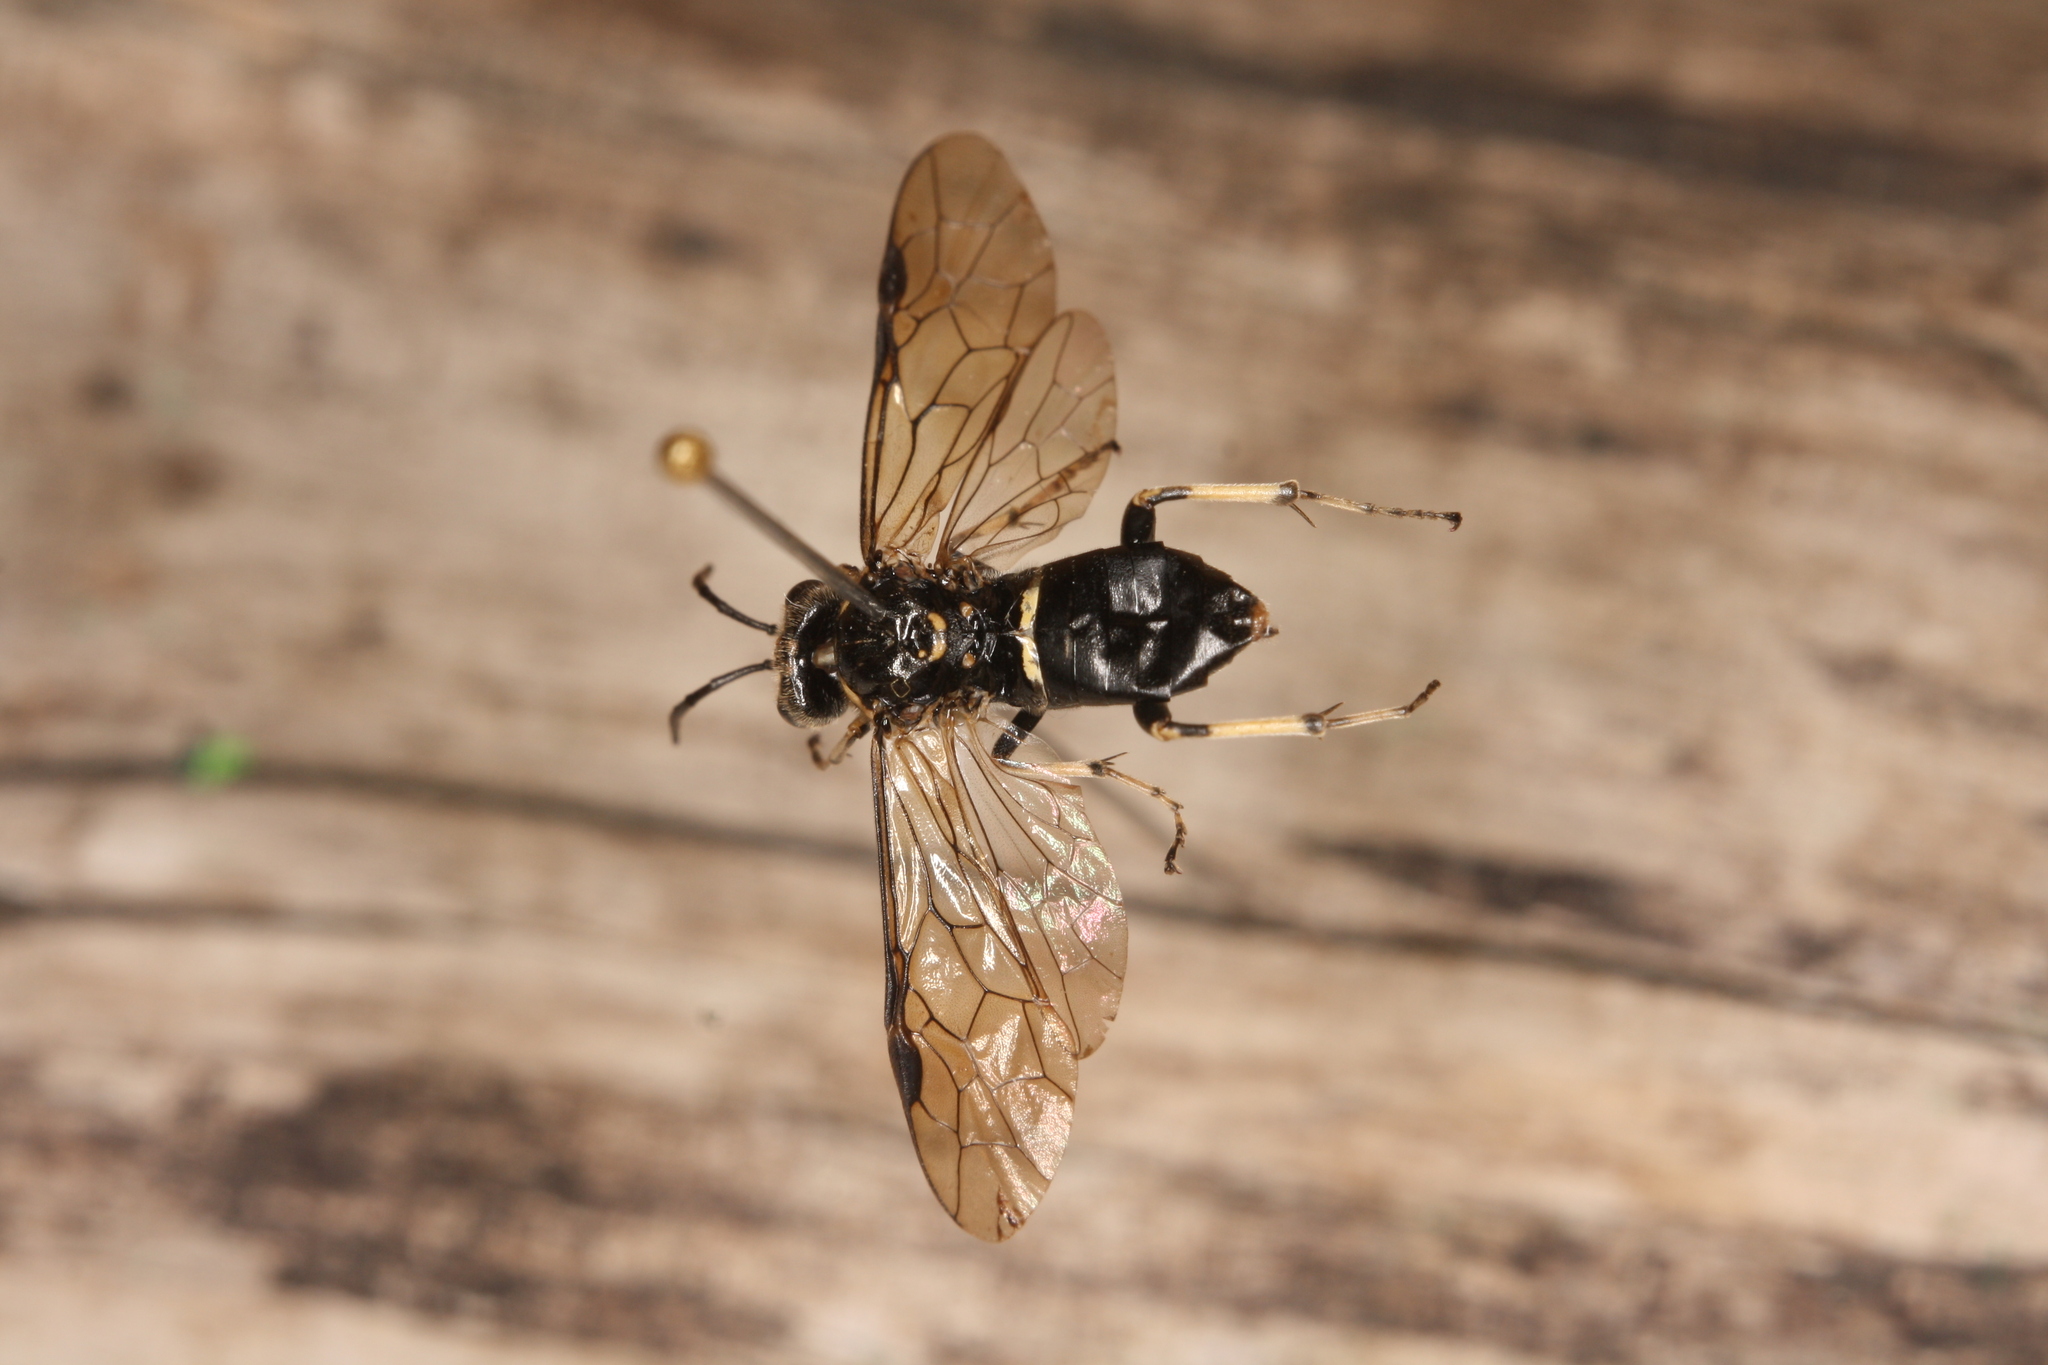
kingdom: Animalia
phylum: Arthropoda
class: Insecta
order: Hymenoptera
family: Tenthredinidae
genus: Macrophya
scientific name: Macrophya alboannulata
